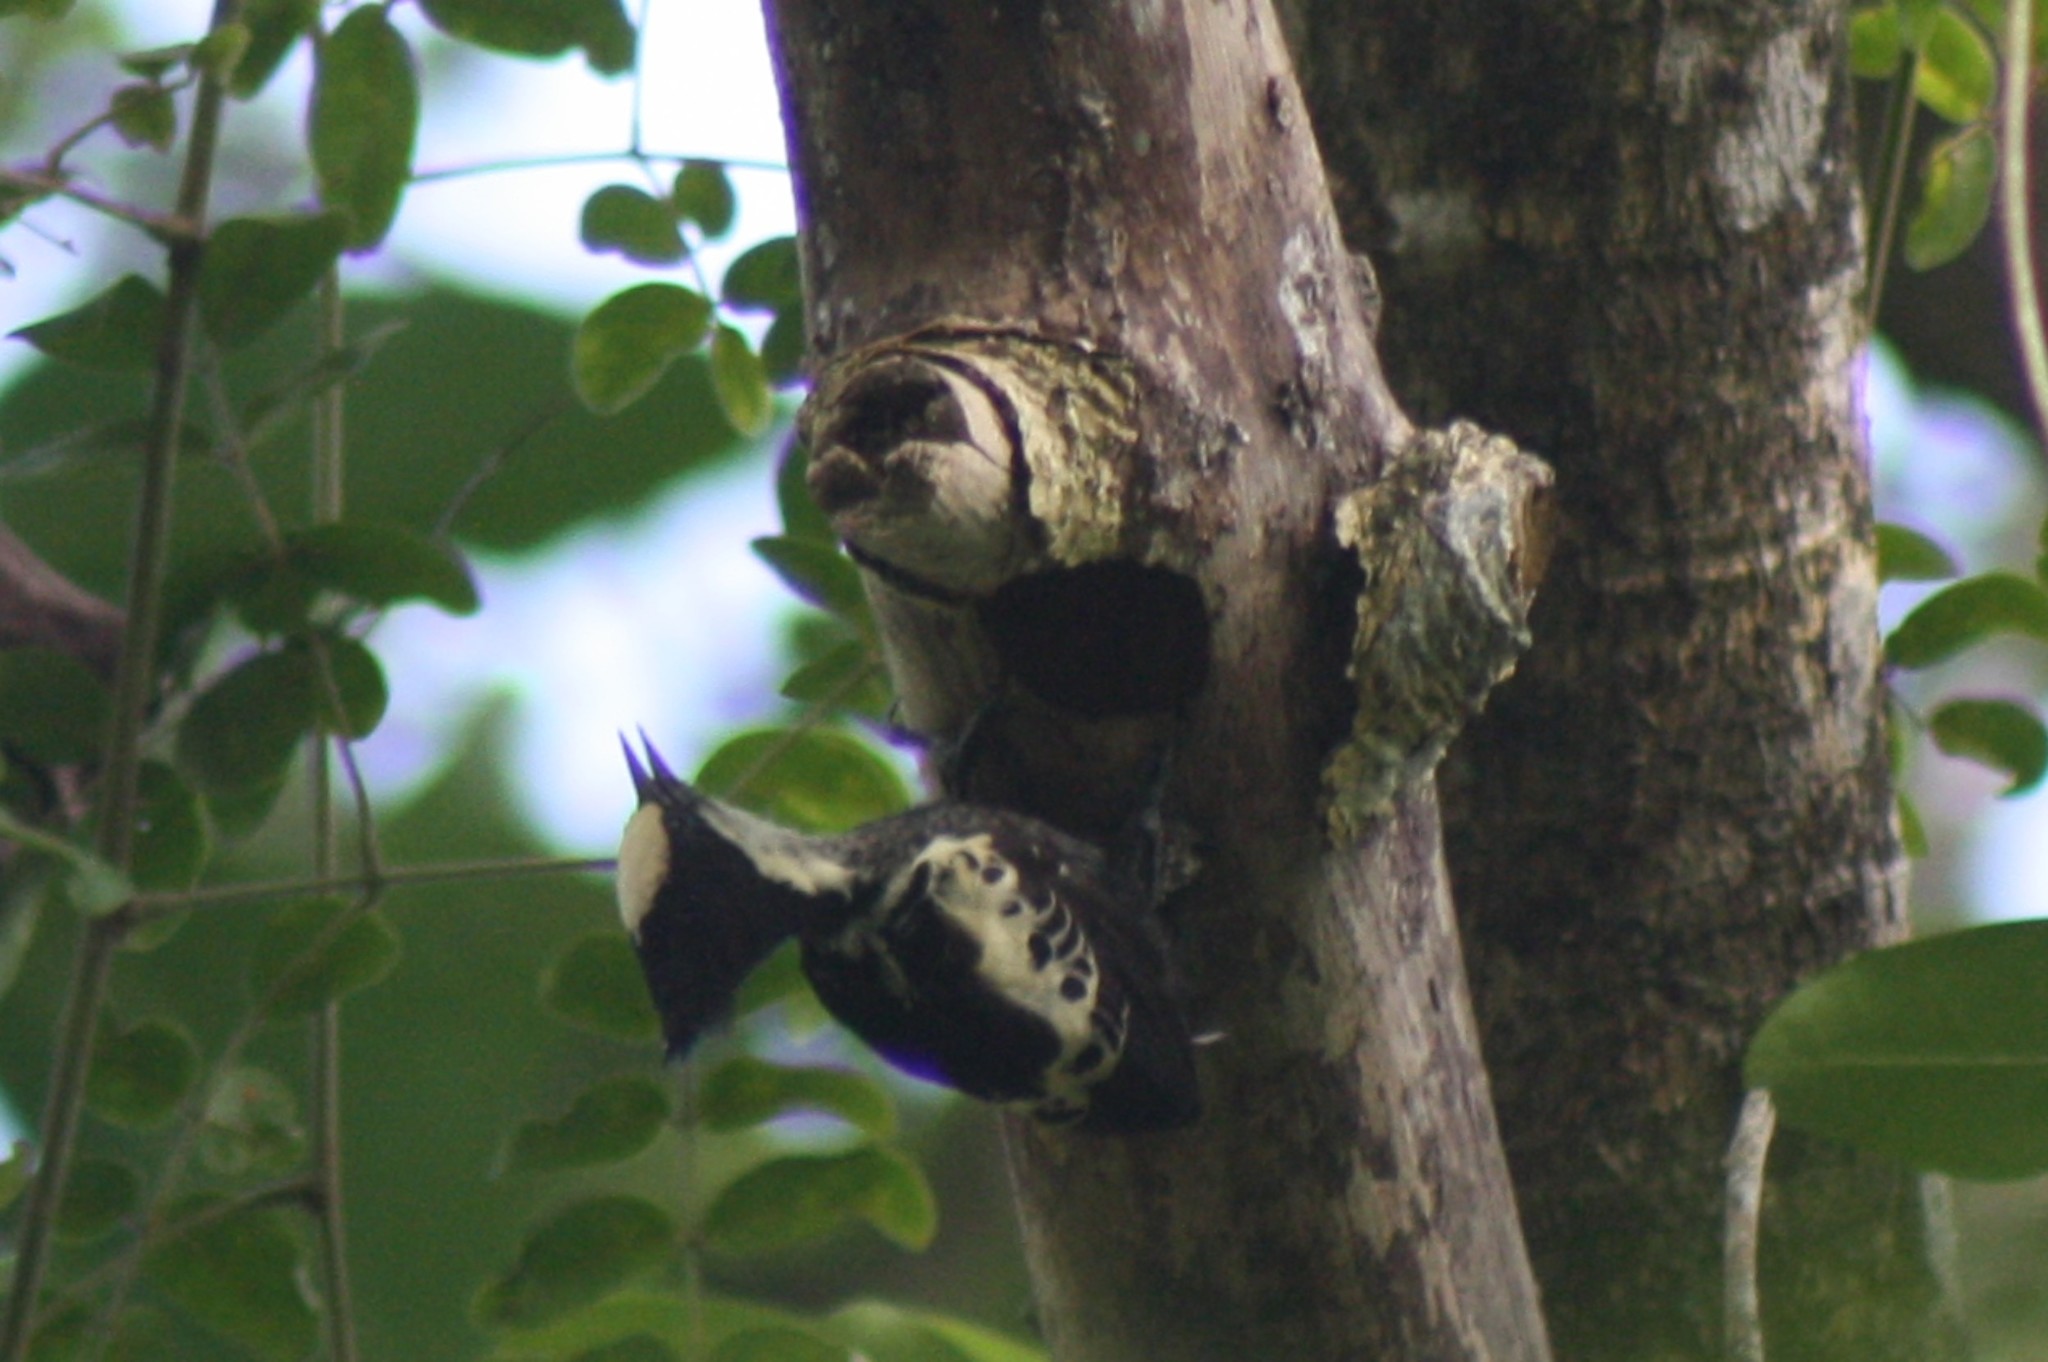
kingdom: Animalia
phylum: Chordata
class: Aves
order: Piciformes
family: Picidae
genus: Hemicircus
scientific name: Hemicircus canente
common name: Heart-spotted woodpecker
